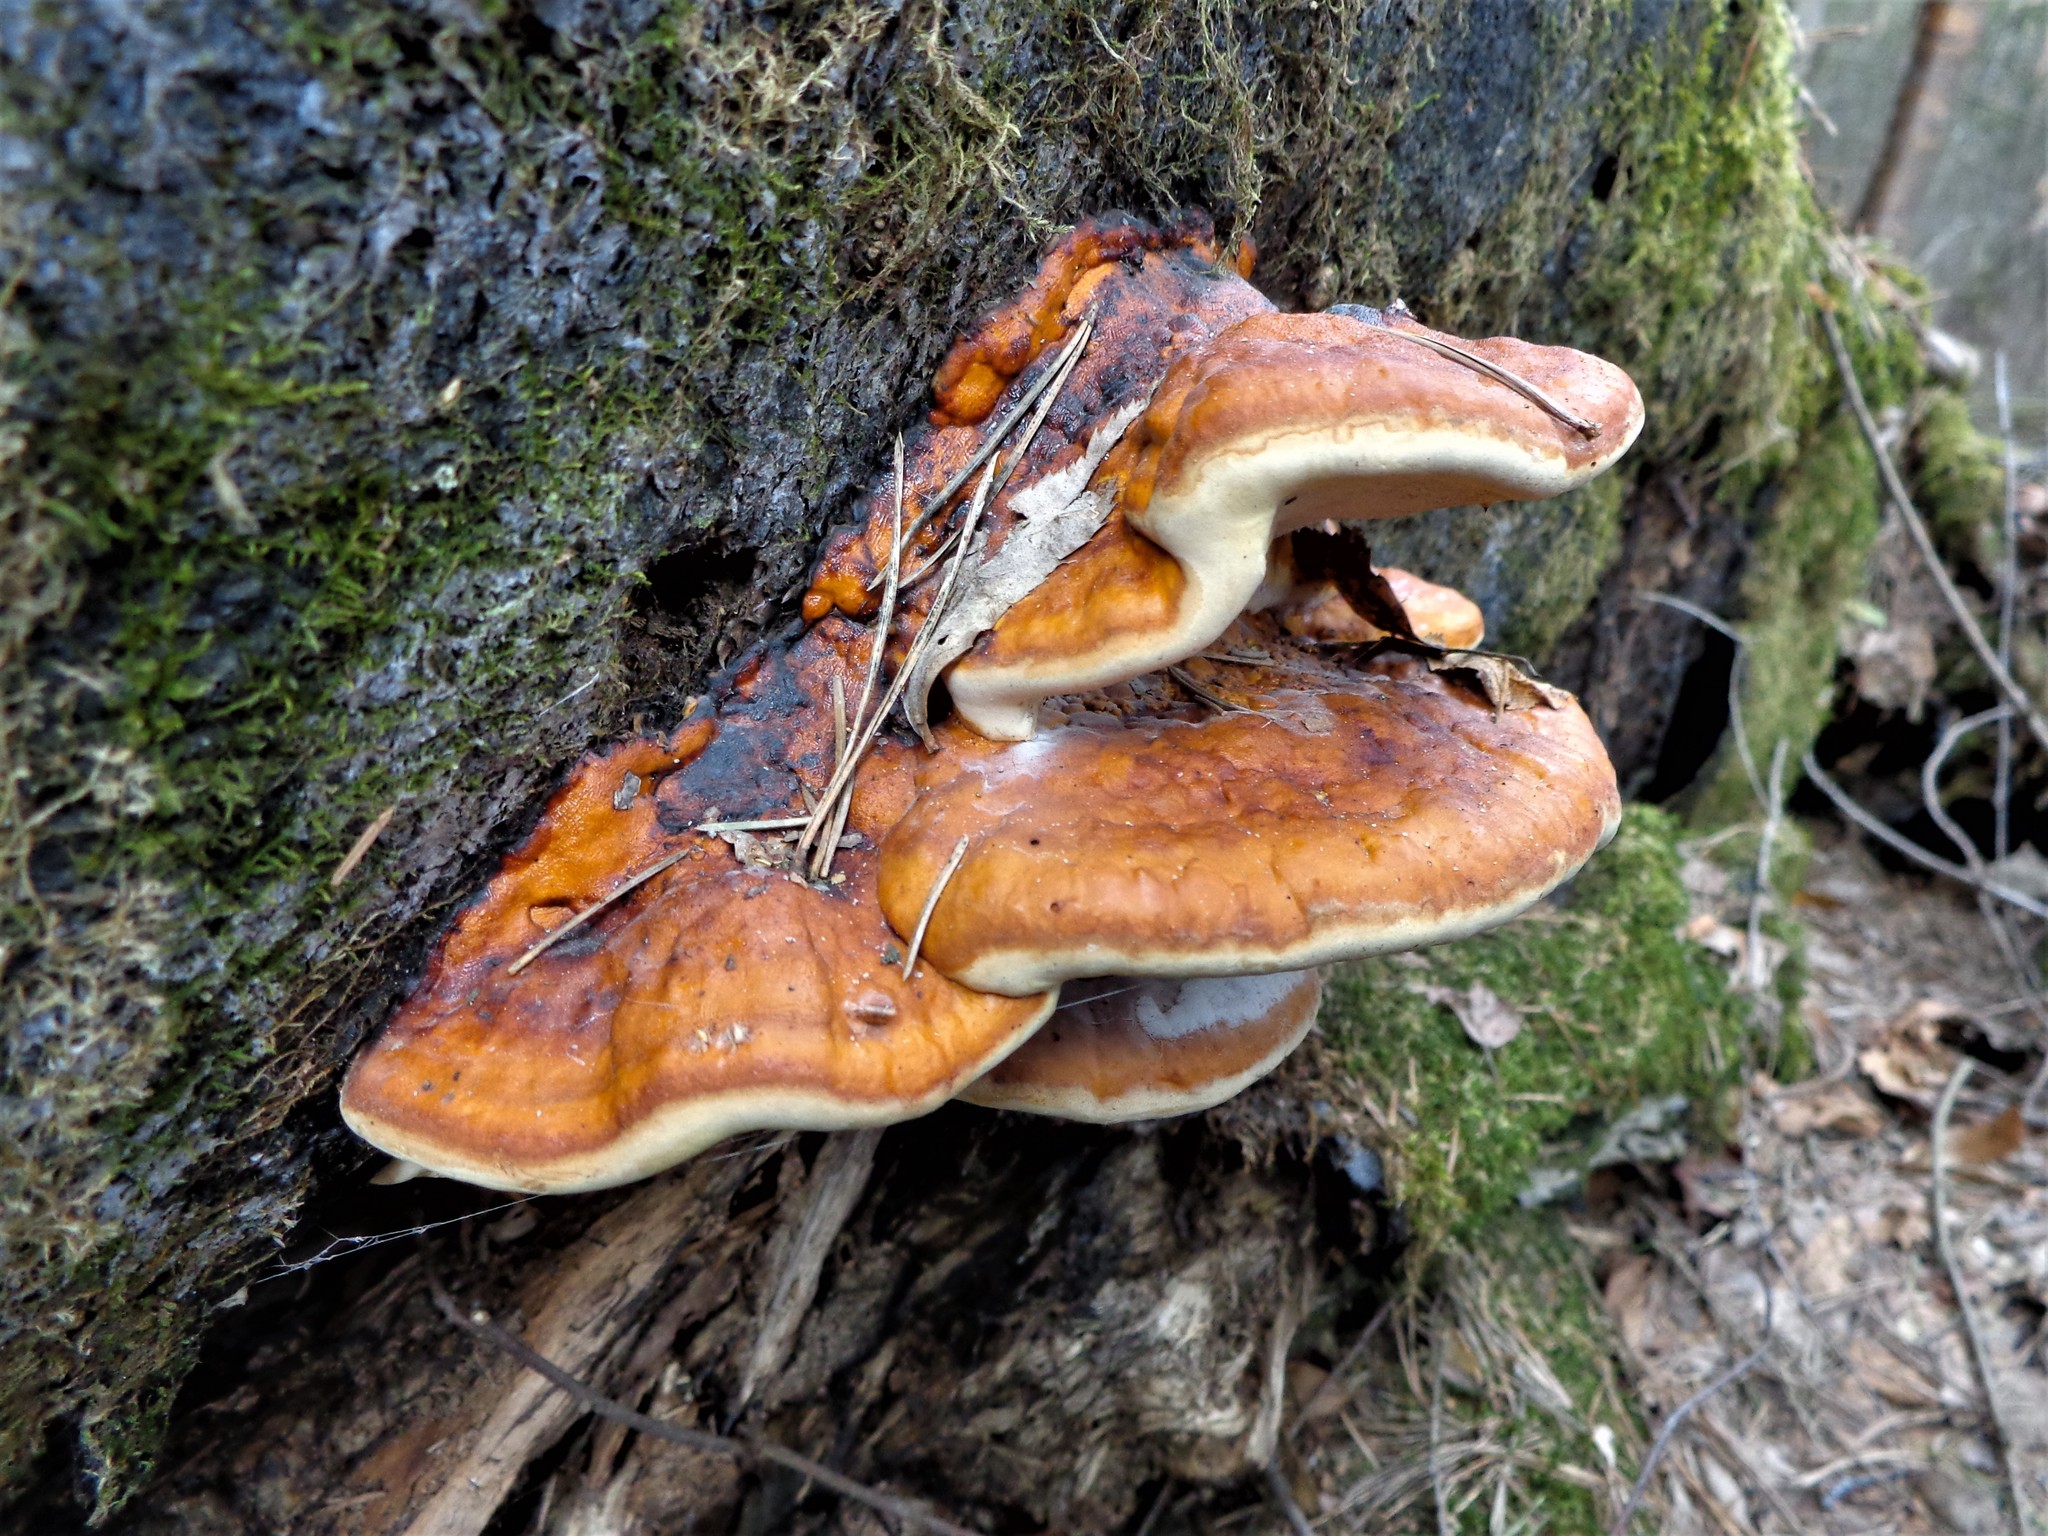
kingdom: Fungi
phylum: Basidiomycota
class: Agaricomycetes
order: Polyporales
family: Fomitopsidaceae
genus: Fomitopsis
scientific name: Fomitopsis pinicola
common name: Red-belted bracket
